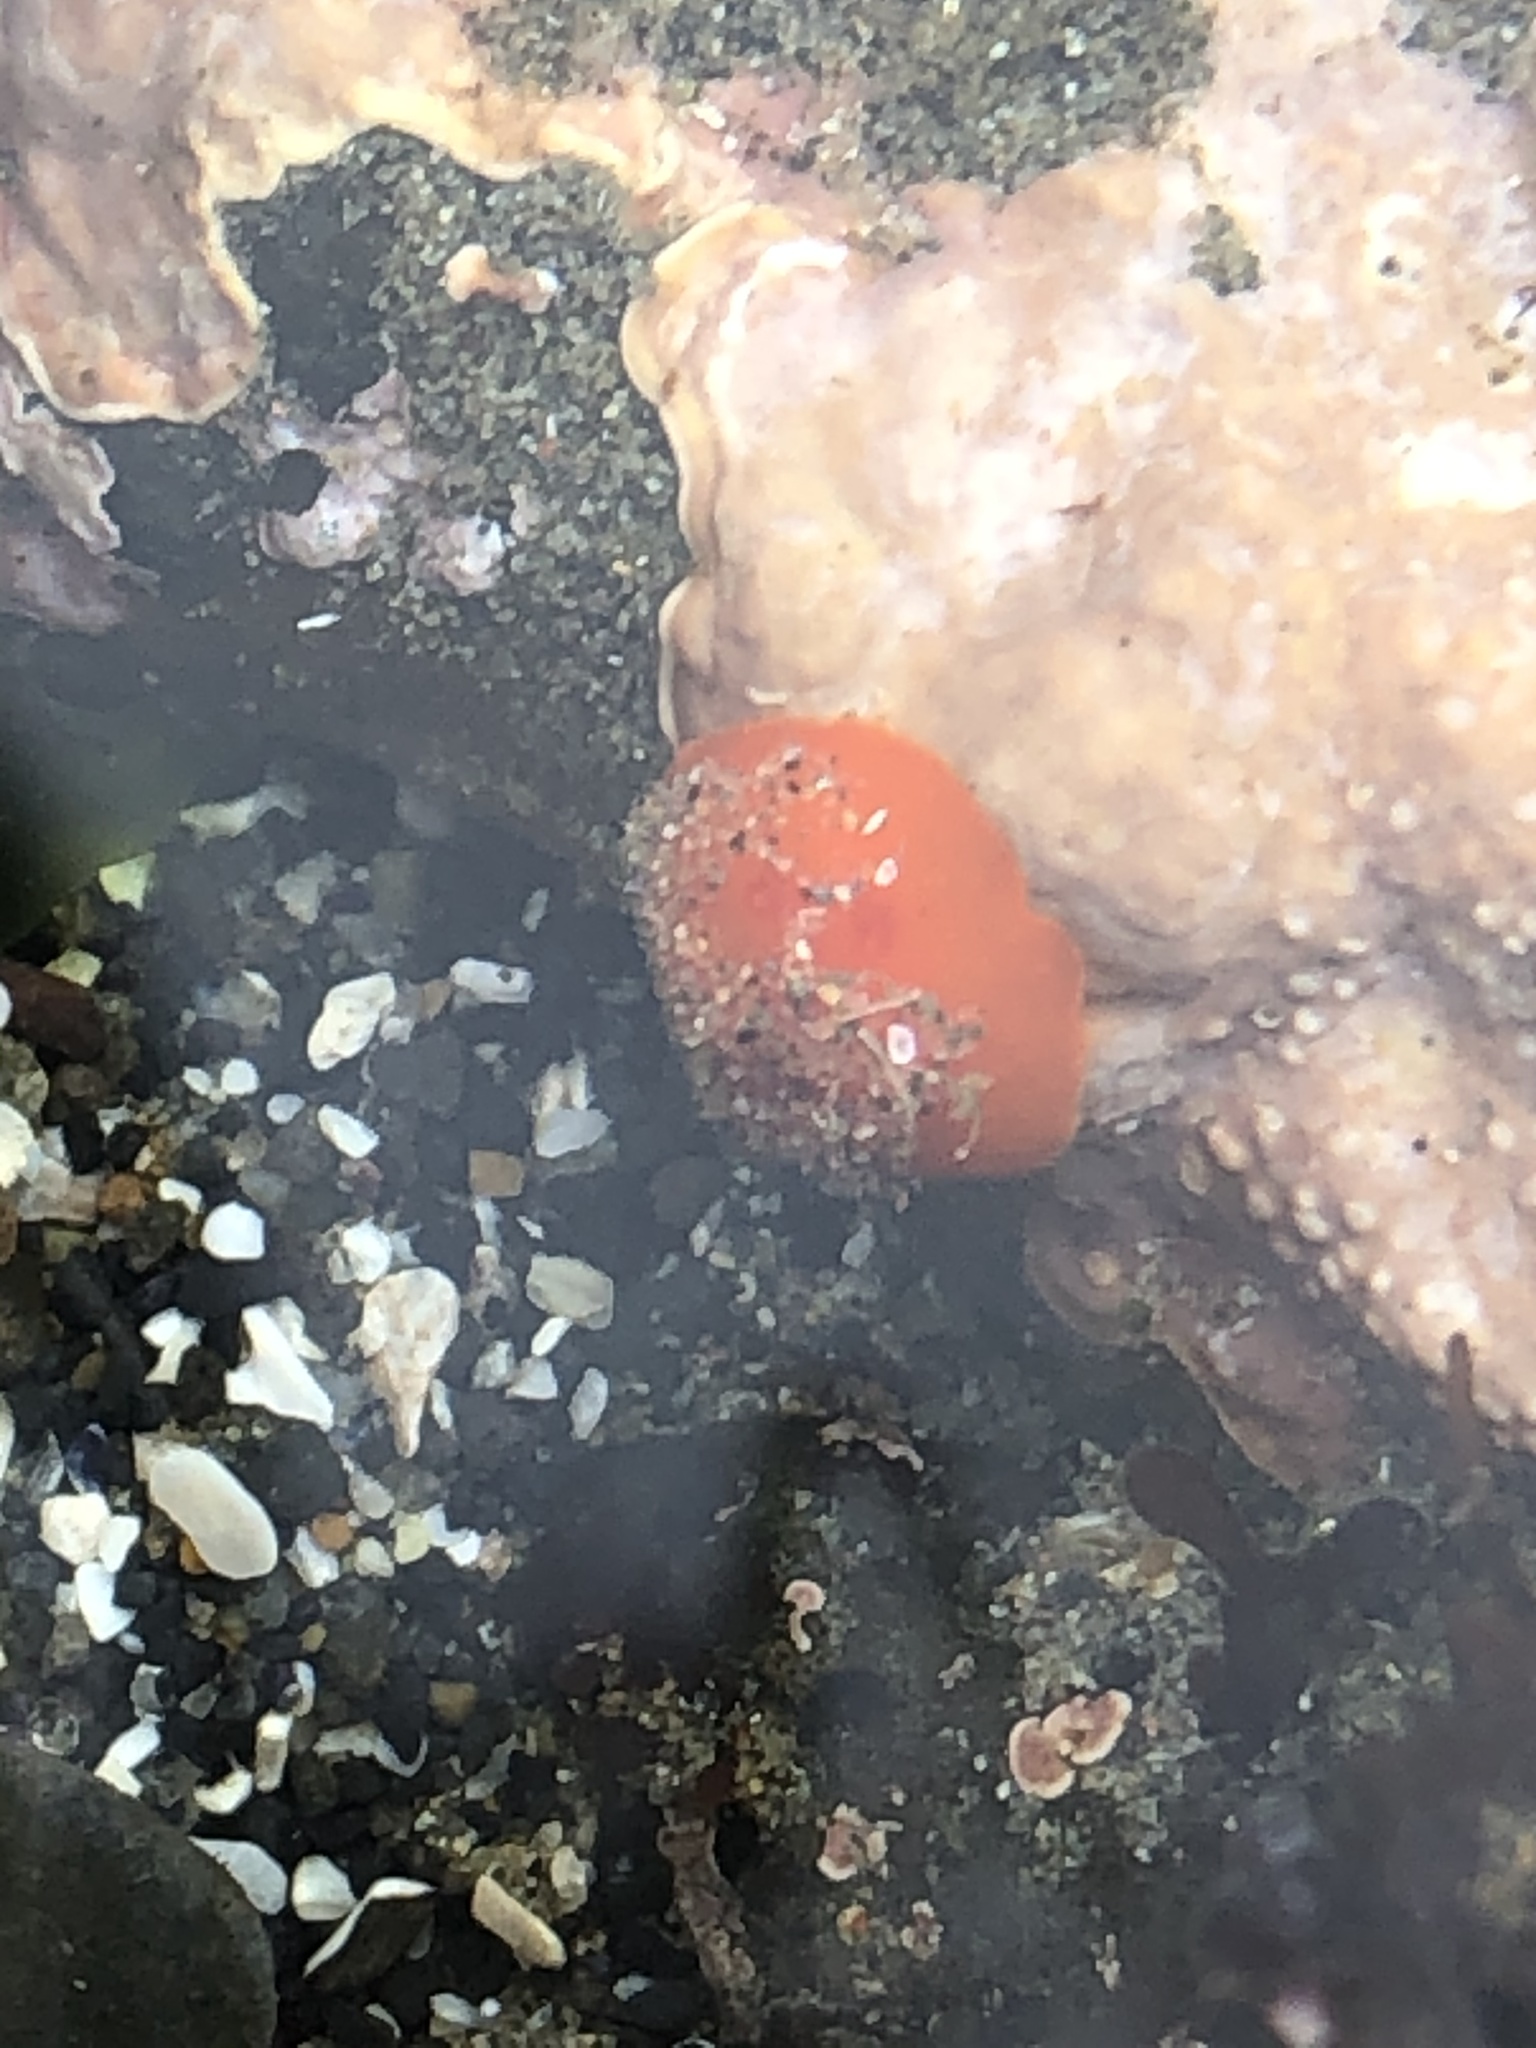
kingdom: Animalia
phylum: Mollusca
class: Gastropoda
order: Nudibranchia
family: Discodorididae
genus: Rostanga
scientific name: Rostanga pulchra
